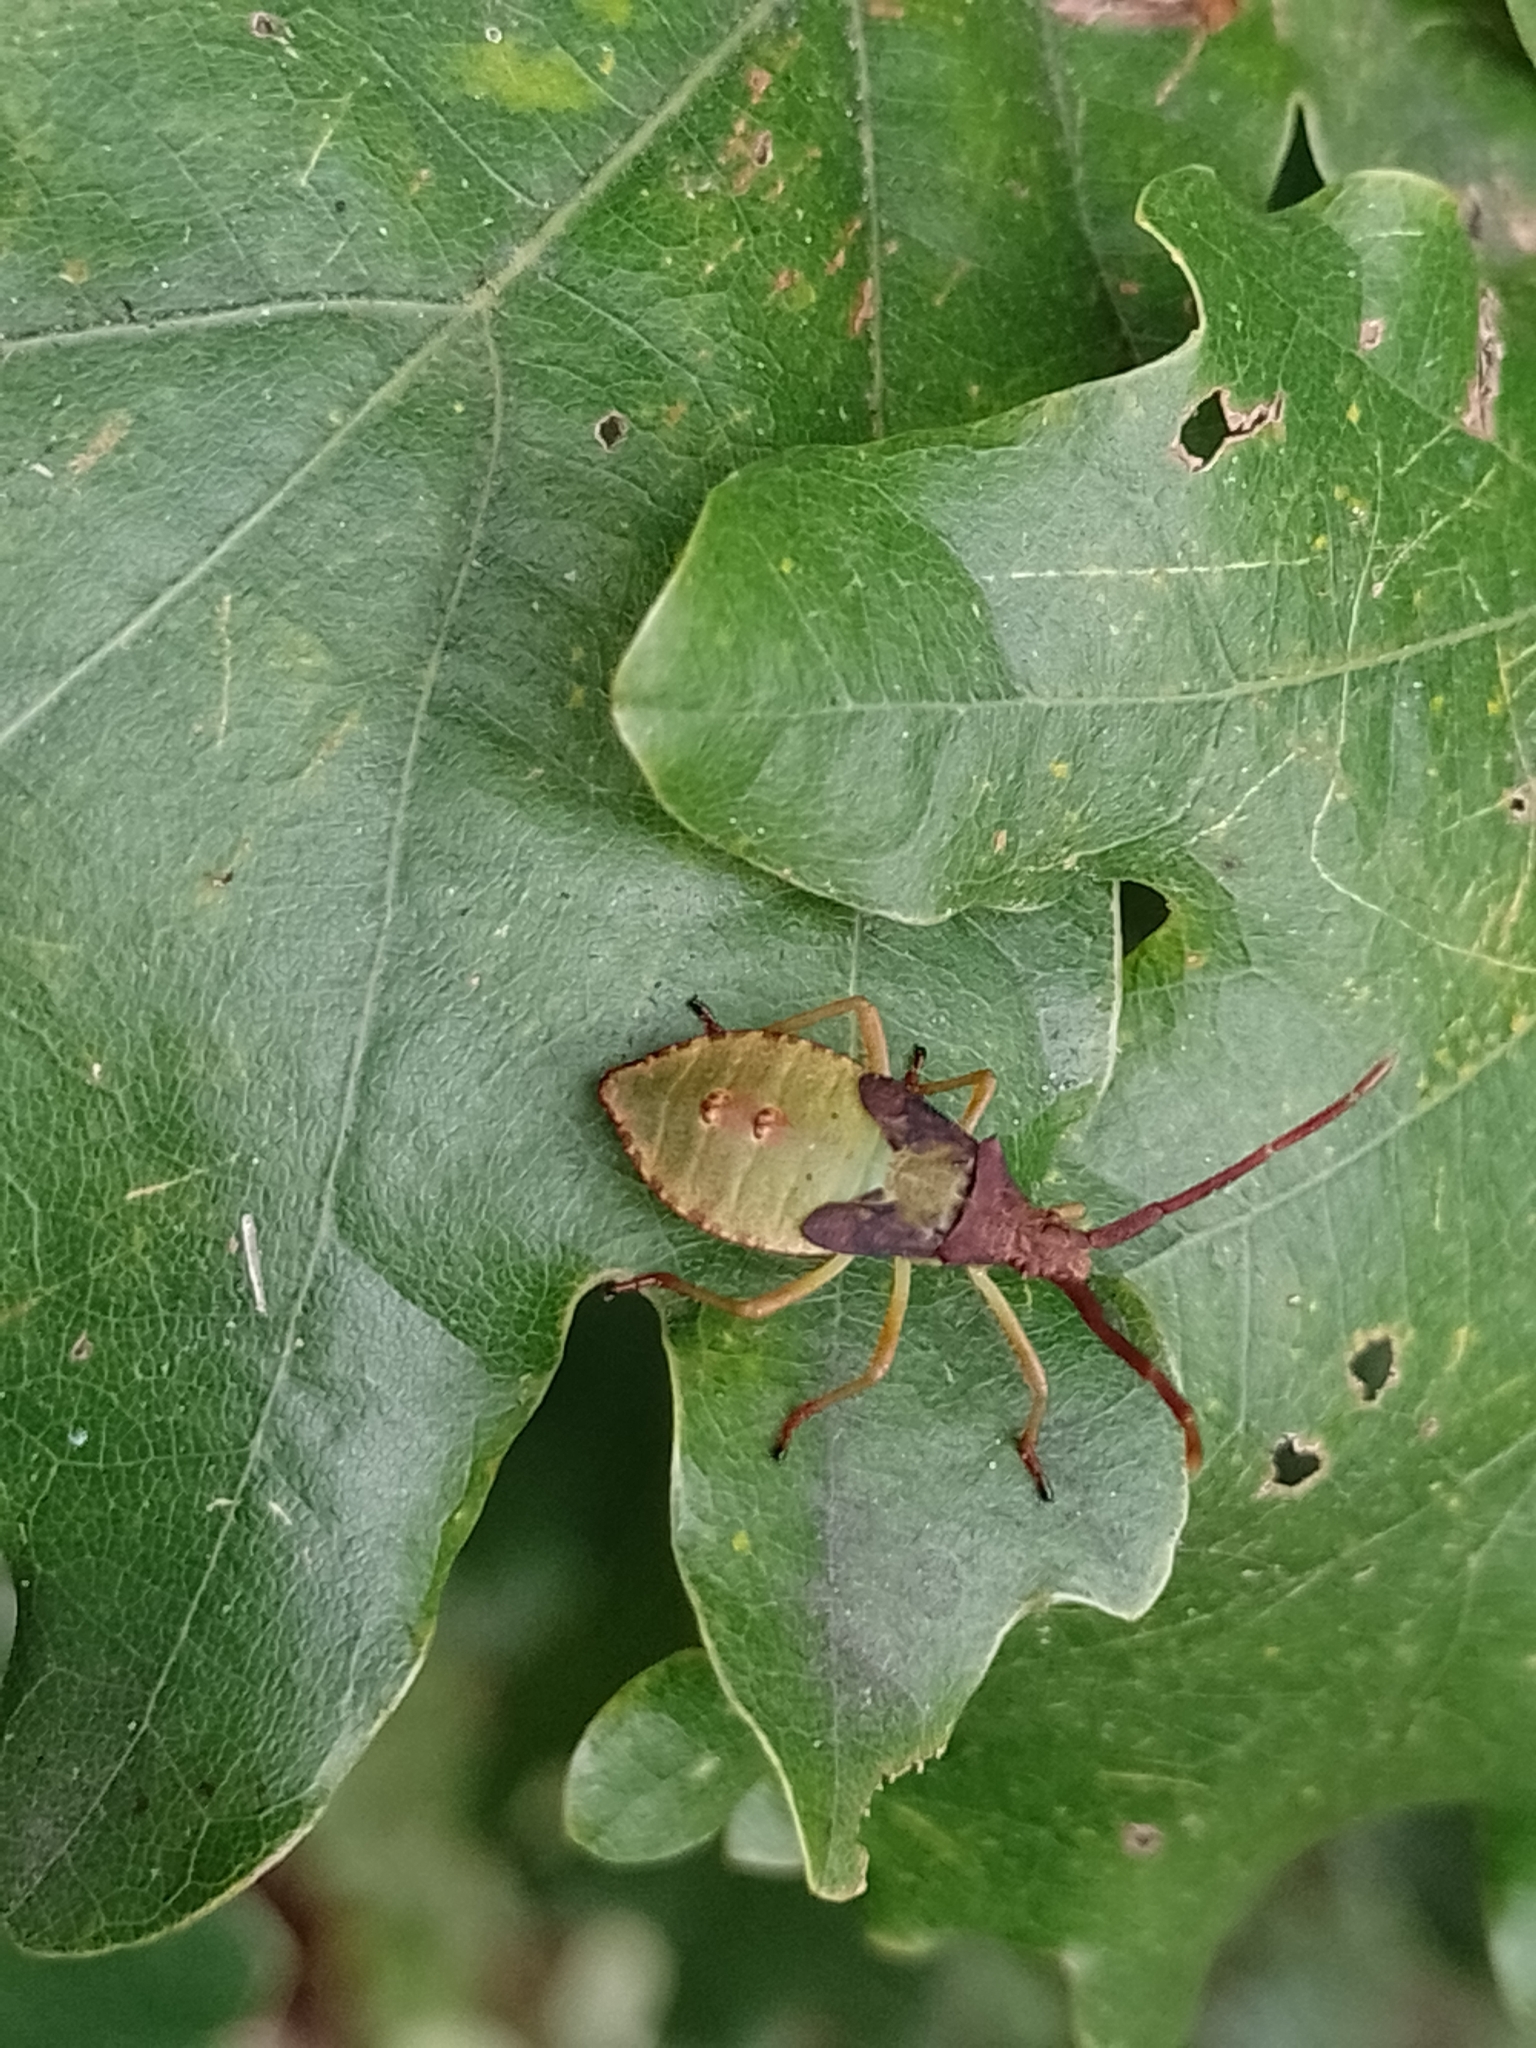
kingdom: Animalia
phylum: Arthropoda
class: Insecta
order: Hemiptera
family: Coreidae
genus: Gonocerus
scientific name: Gonocerus acuteangulatus
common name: Box bug
